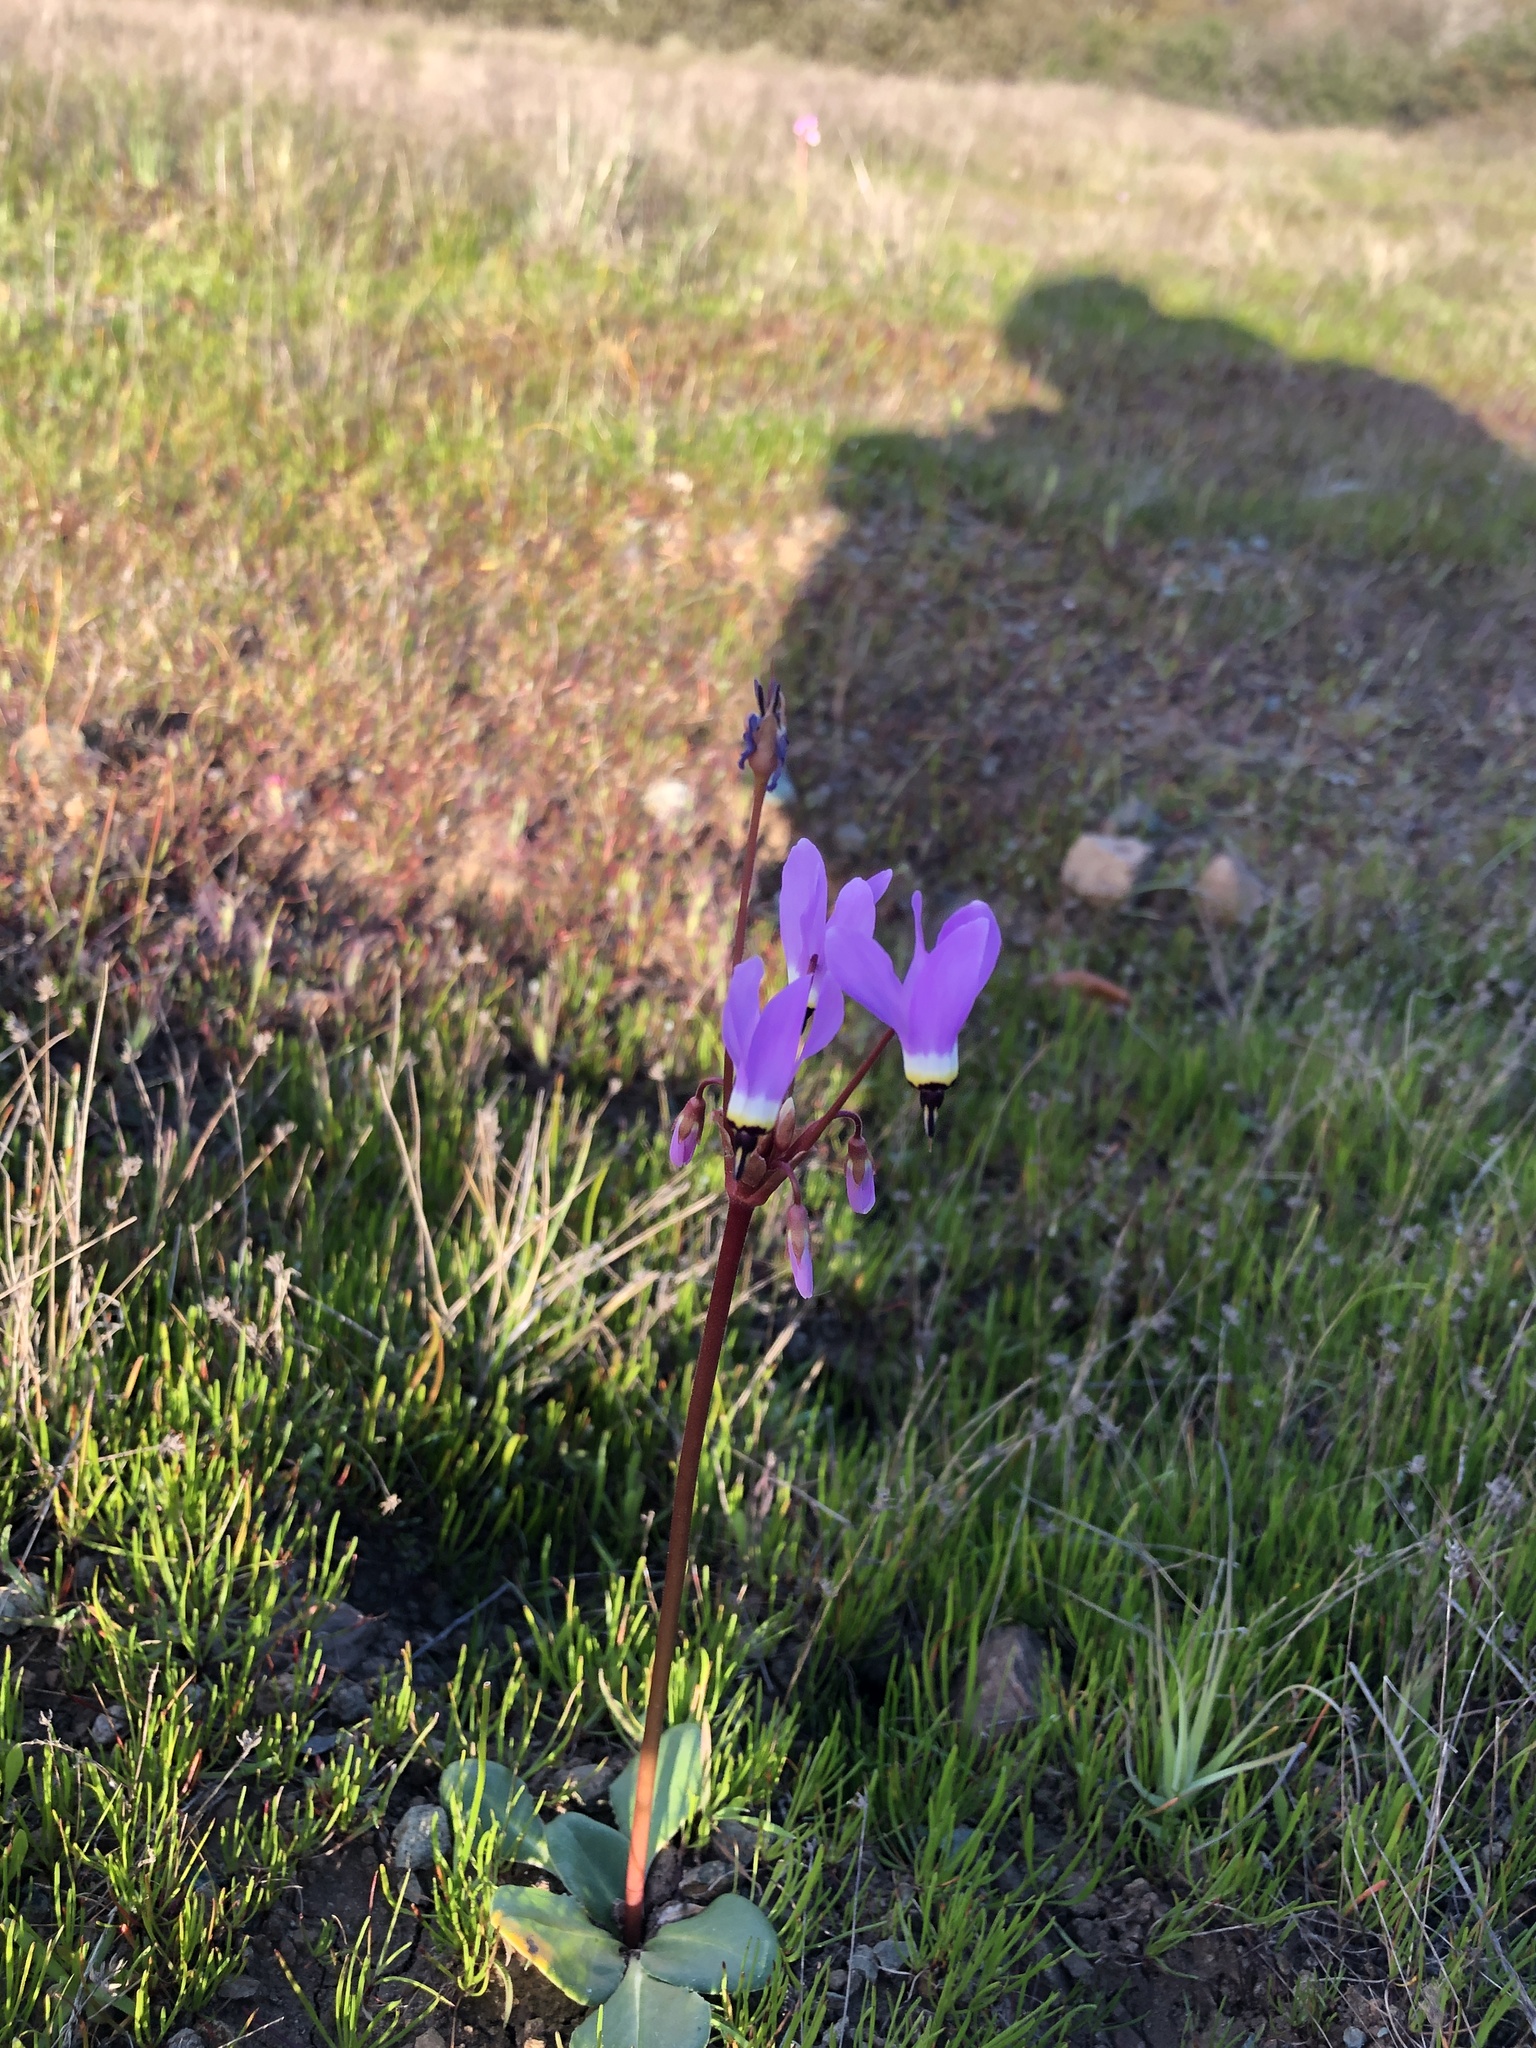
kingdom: Plantae
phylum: Tracheophyta
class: Magnoliopsida
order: Ericales
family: Primulaceae
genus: Dodecatheon
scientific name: Dodecatheon hendersonii
